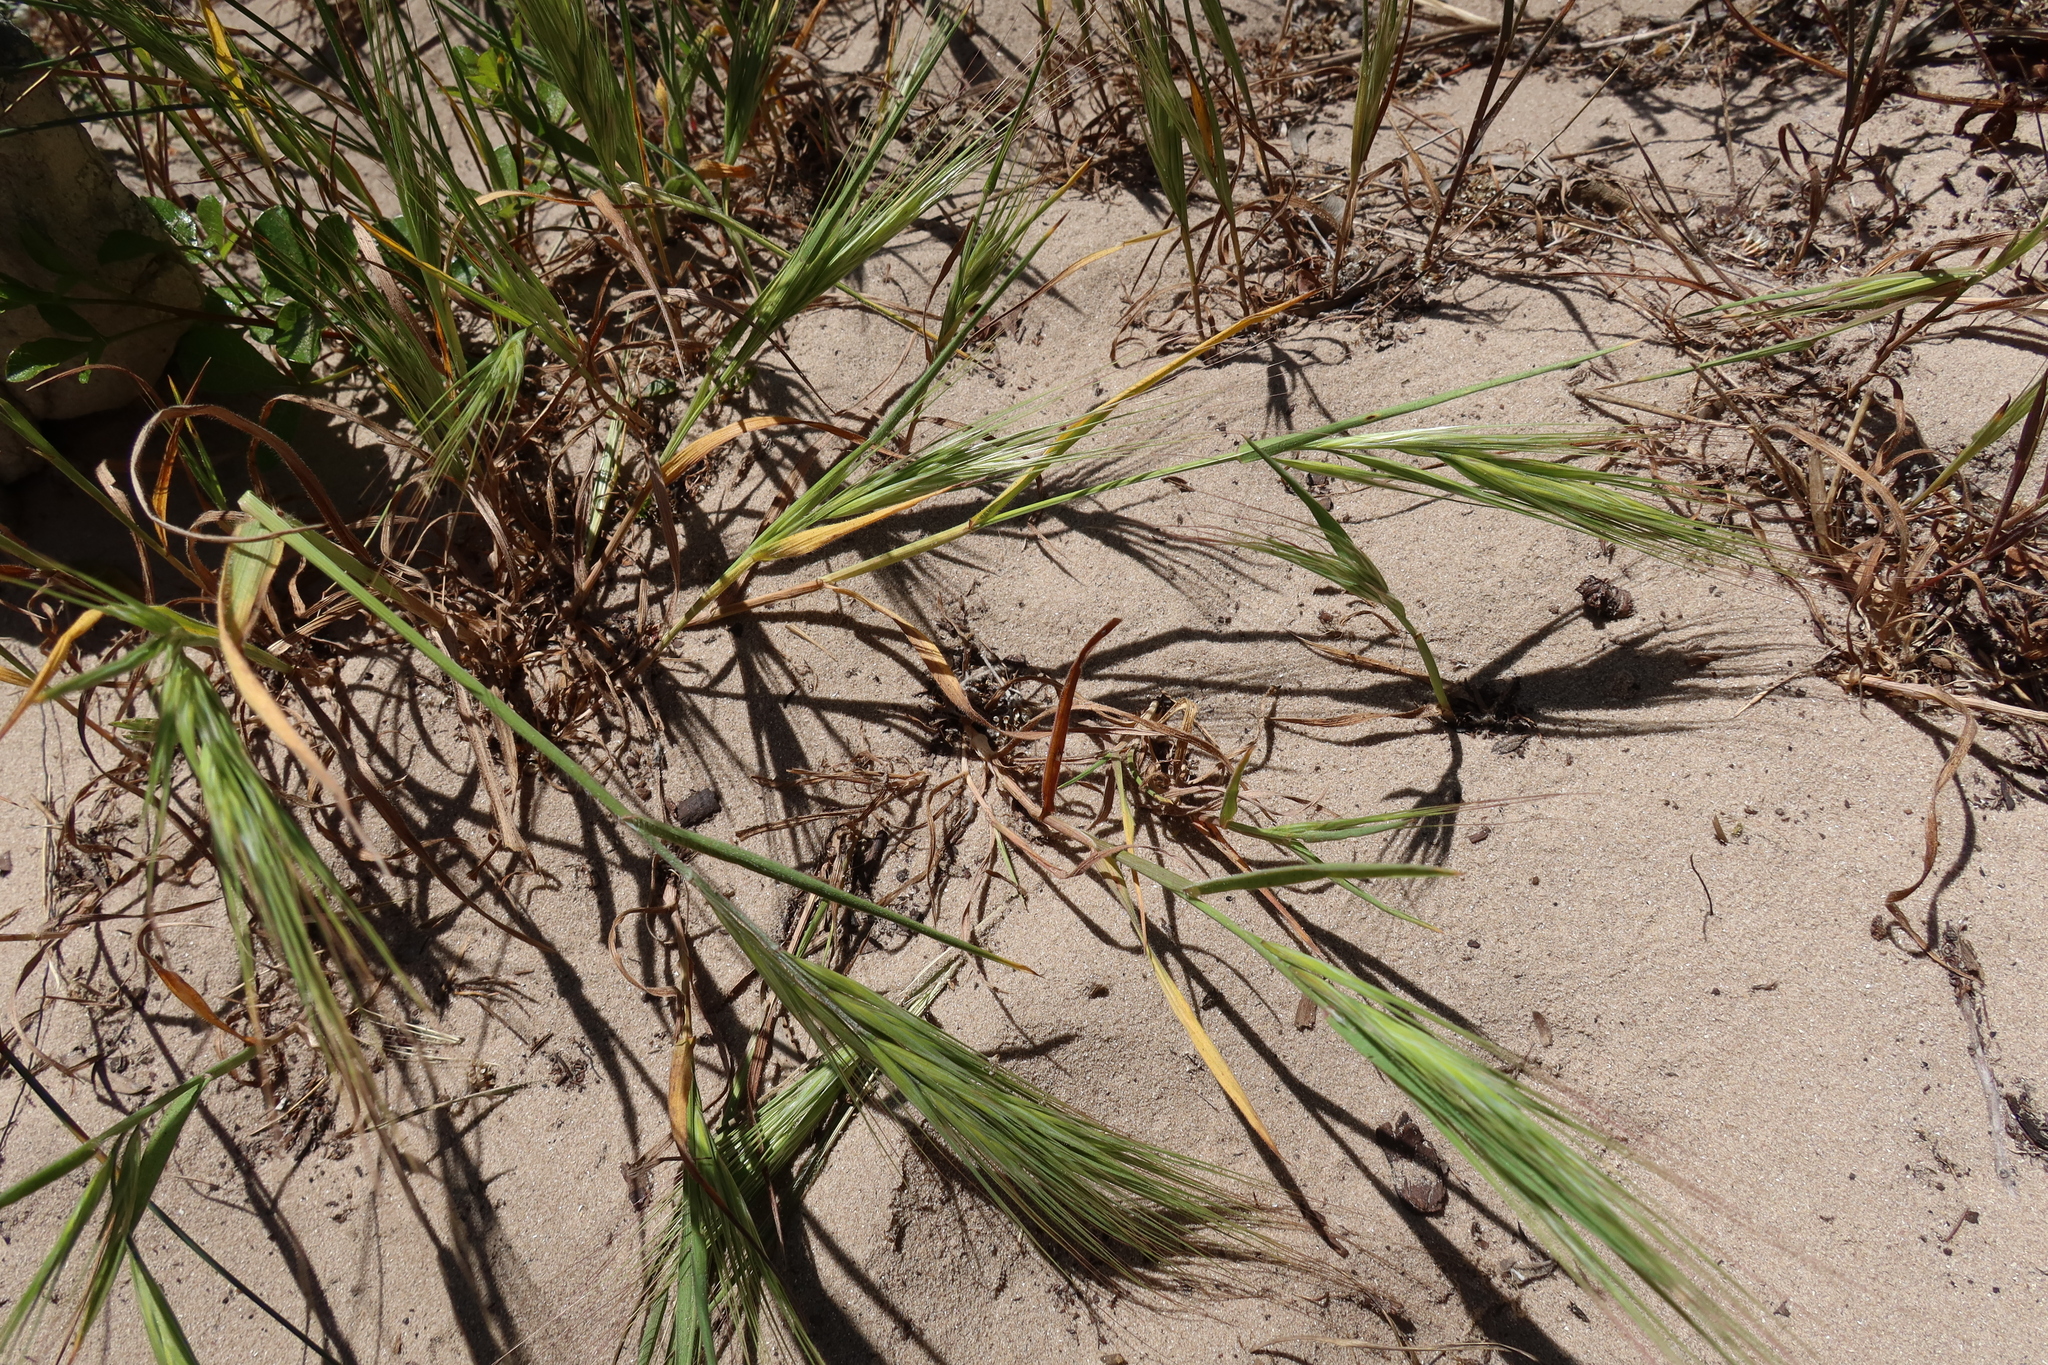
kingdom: Plantae
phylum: Tracheophyta
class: Liliopsida
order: Poales
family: Poaceae
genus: Bromus
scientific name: Bromus diandrus
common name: Ripgut brome
